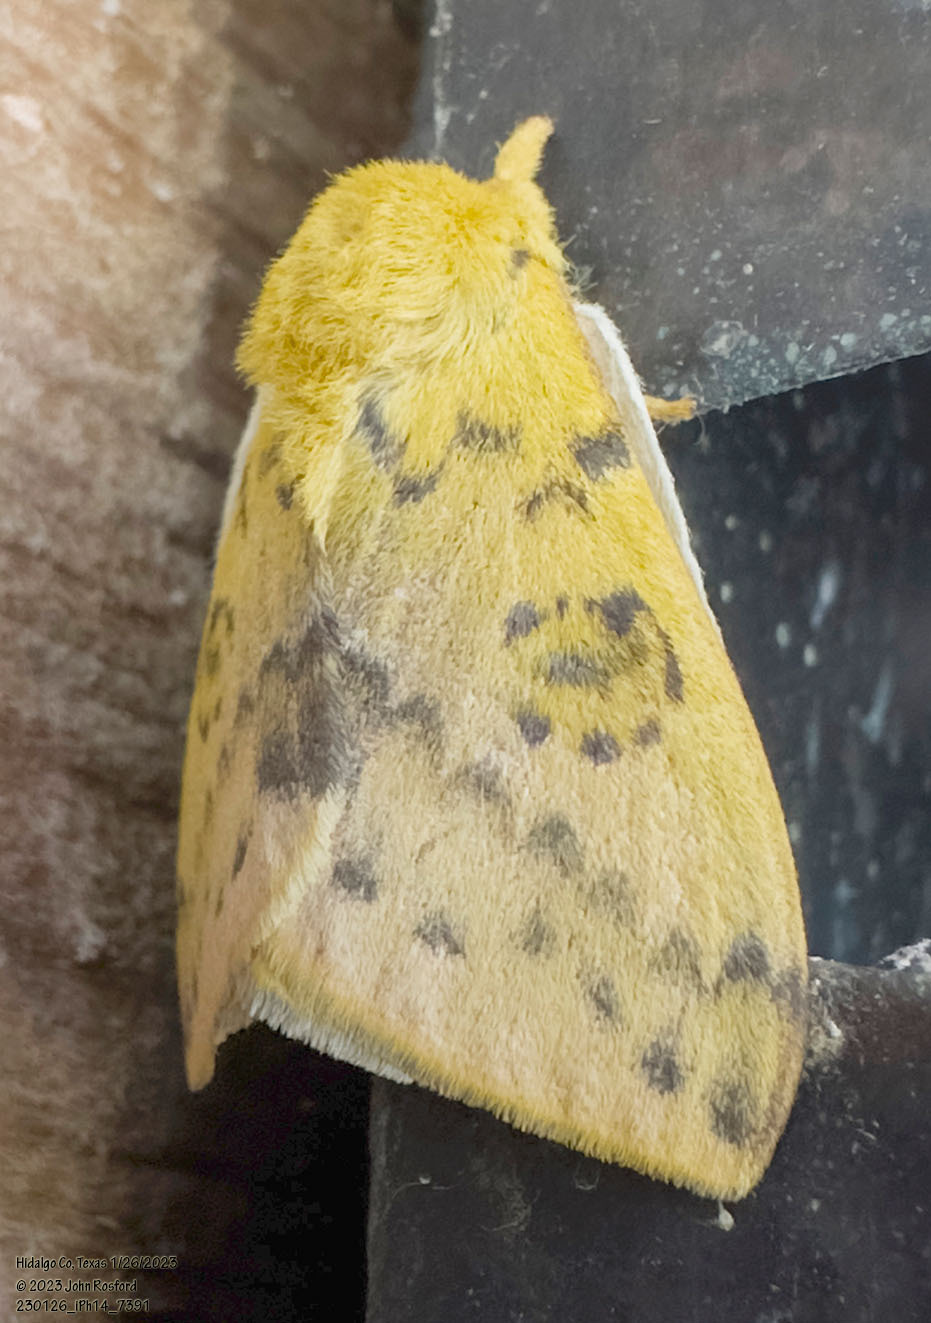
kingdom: Animalia
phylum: Arthropoda
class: Insecta
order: Lepidoptera
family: Saturniidae
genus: Automeris
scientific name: Automeris io
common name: Io moth
